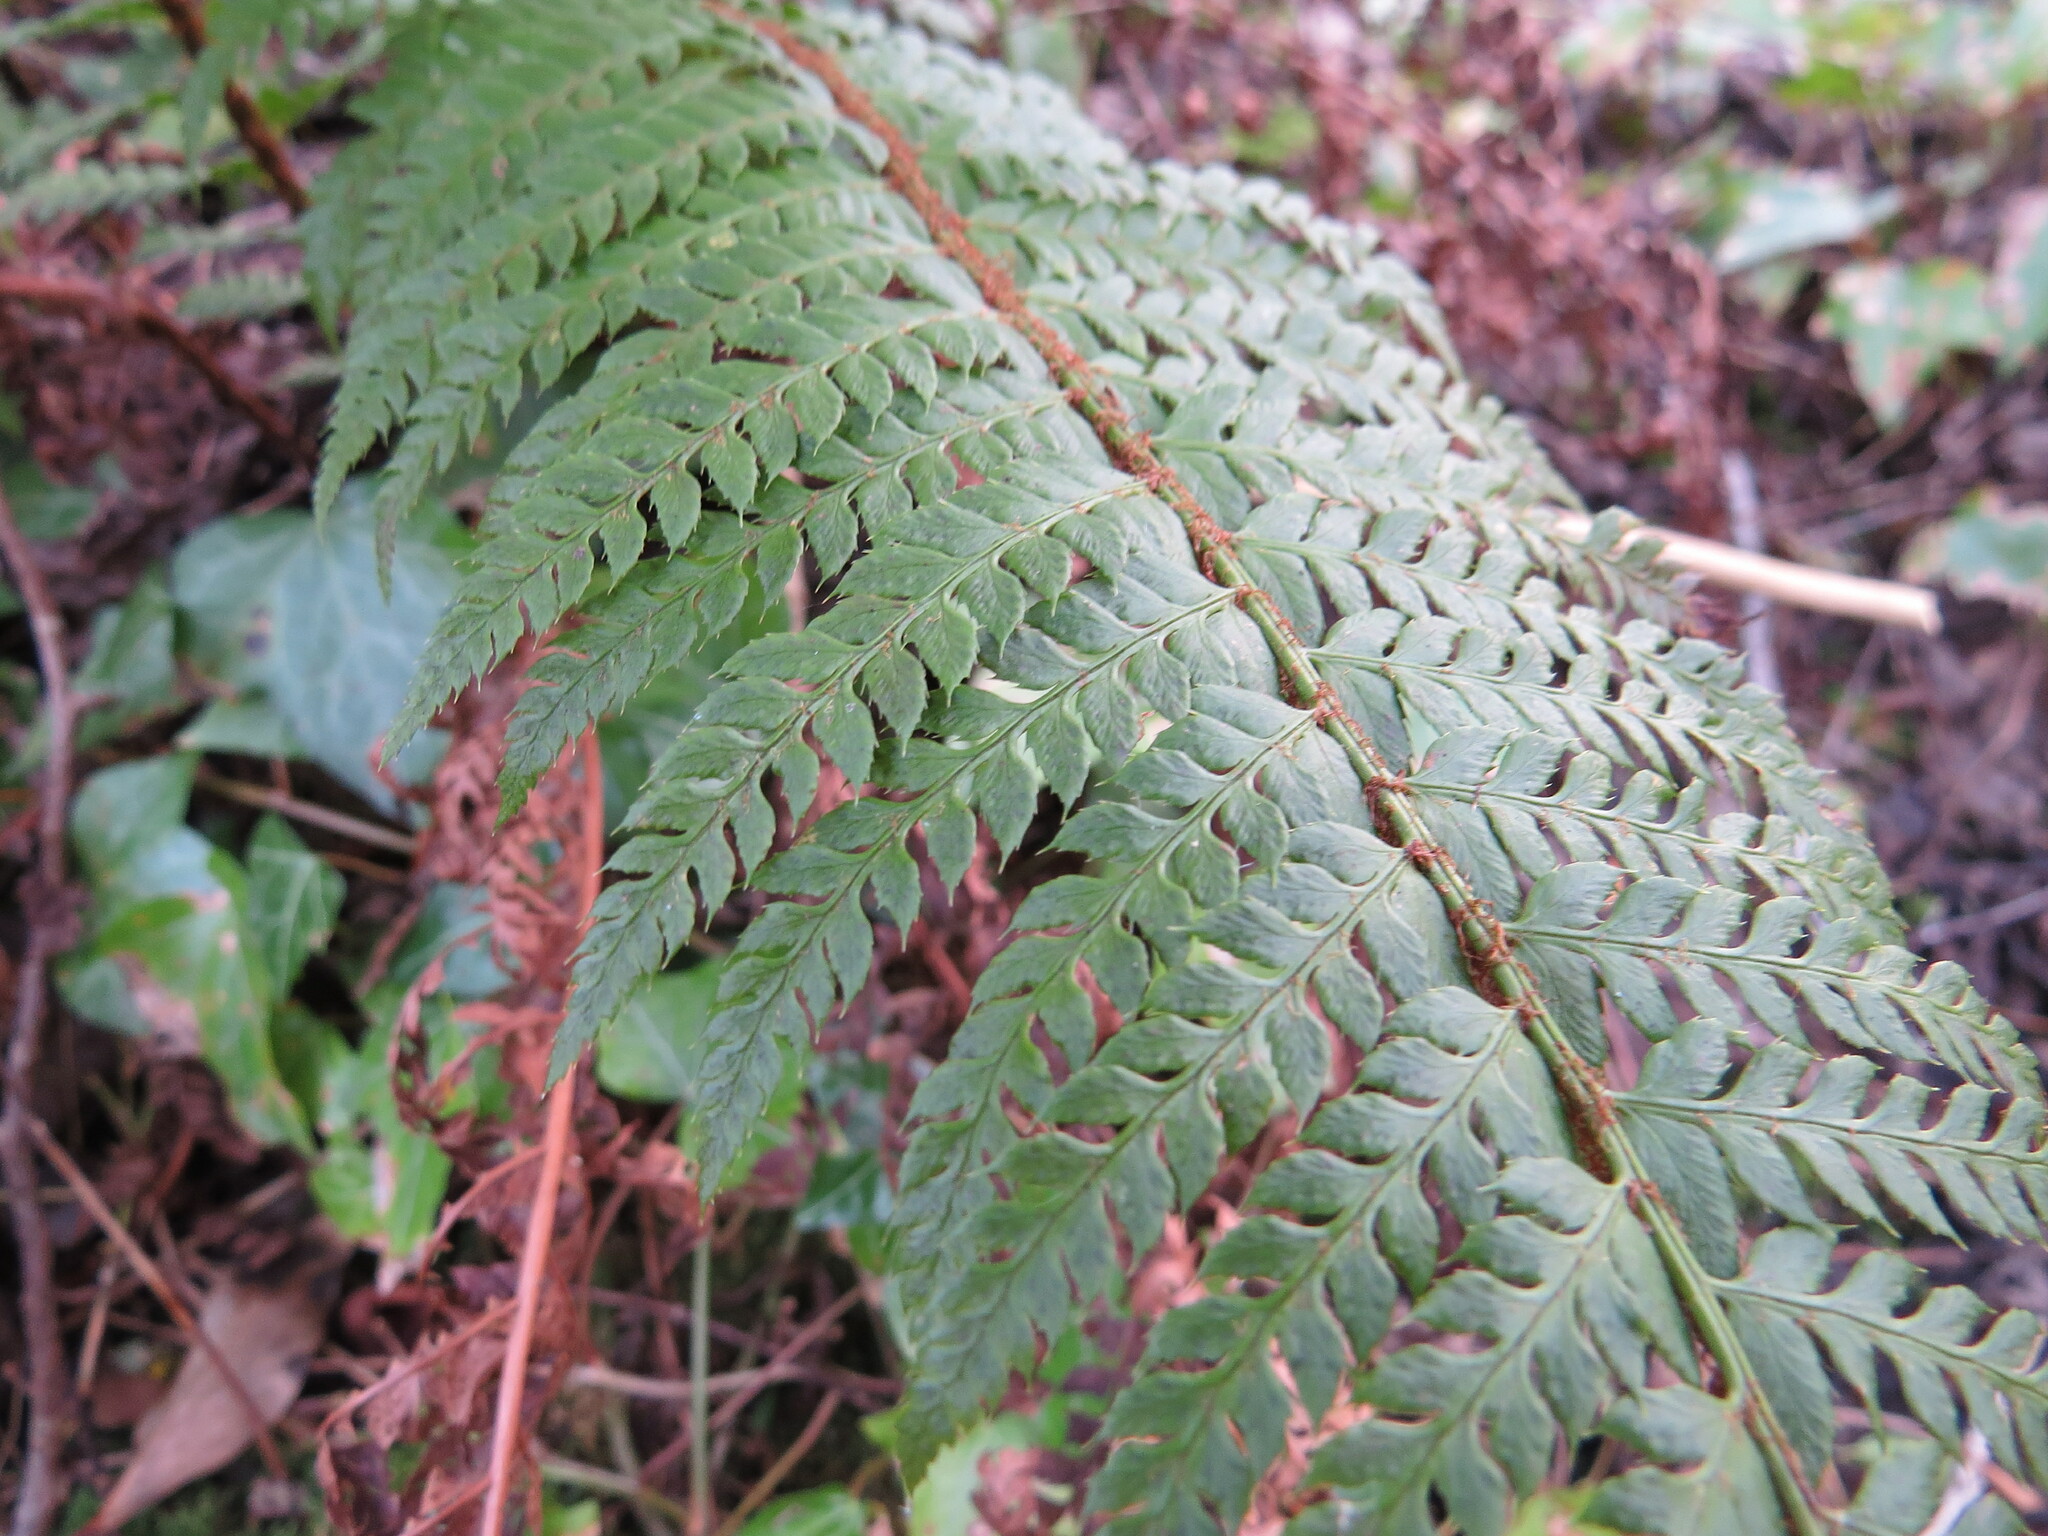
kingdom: Plantae
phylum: Tracheophyta
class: Polypodiopsida
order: Polypodiales
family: Dryopteridaceae
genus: Polystichum
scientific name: Polystichum aculeatum
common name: Hard shield-fern
